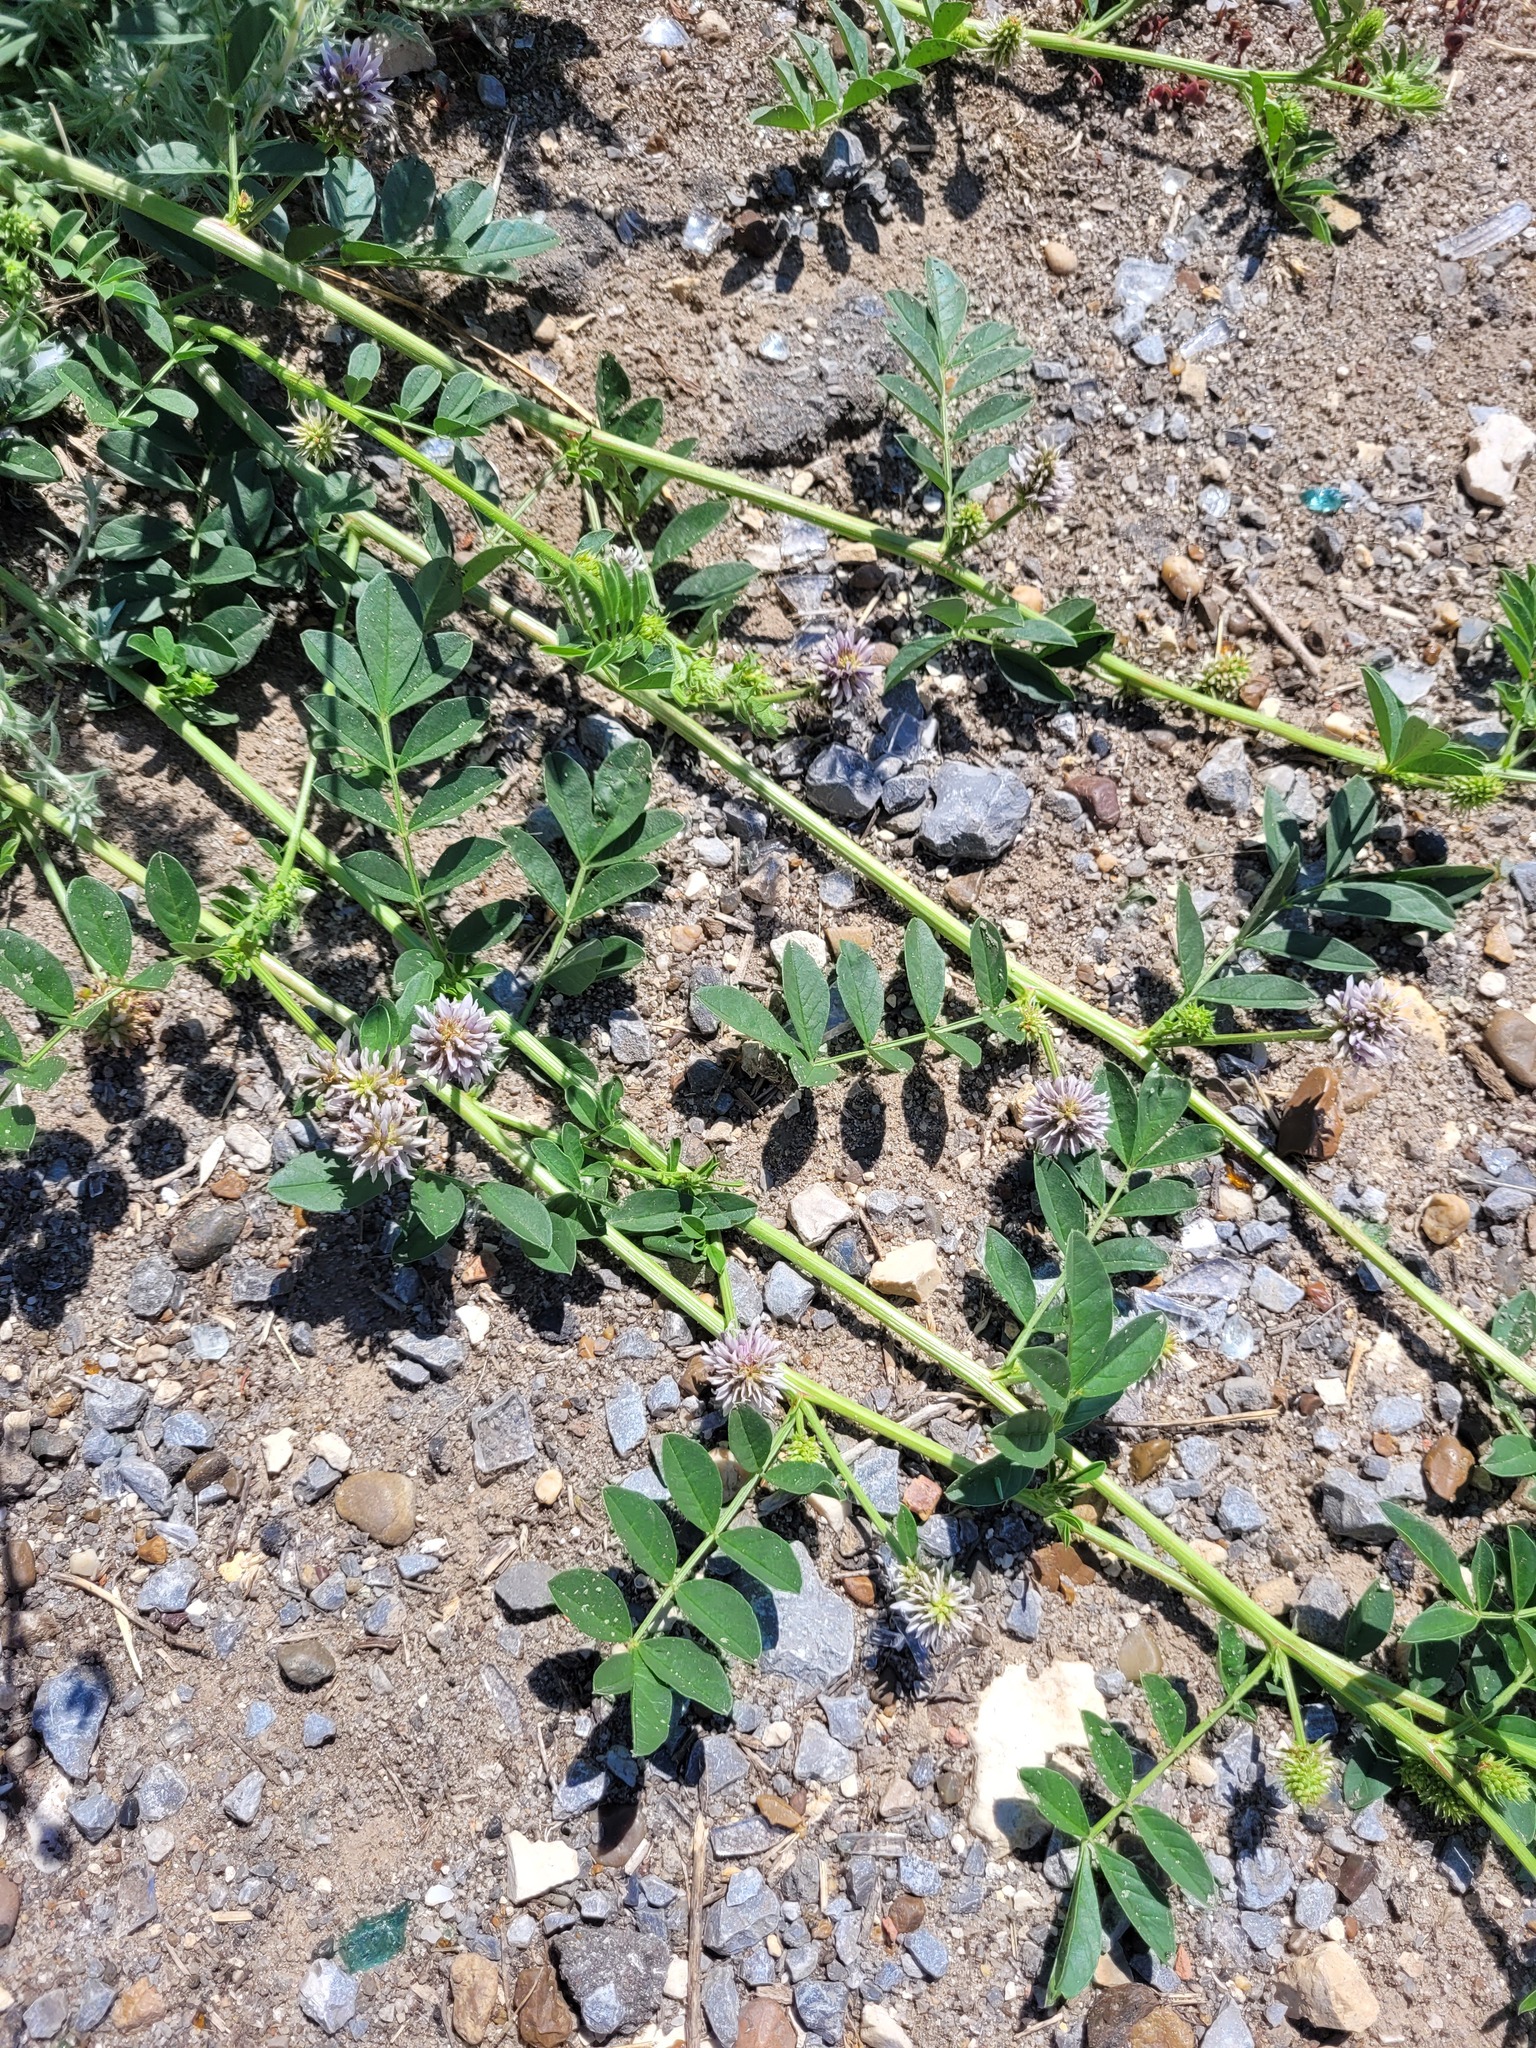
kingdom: Plantae
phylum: Tracheophyta
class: Magnoliopsida
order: Fabales
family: Fabaceae
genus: Glycyrrhiza
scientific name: Glycyrrhiza echinata
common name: German liquorice
